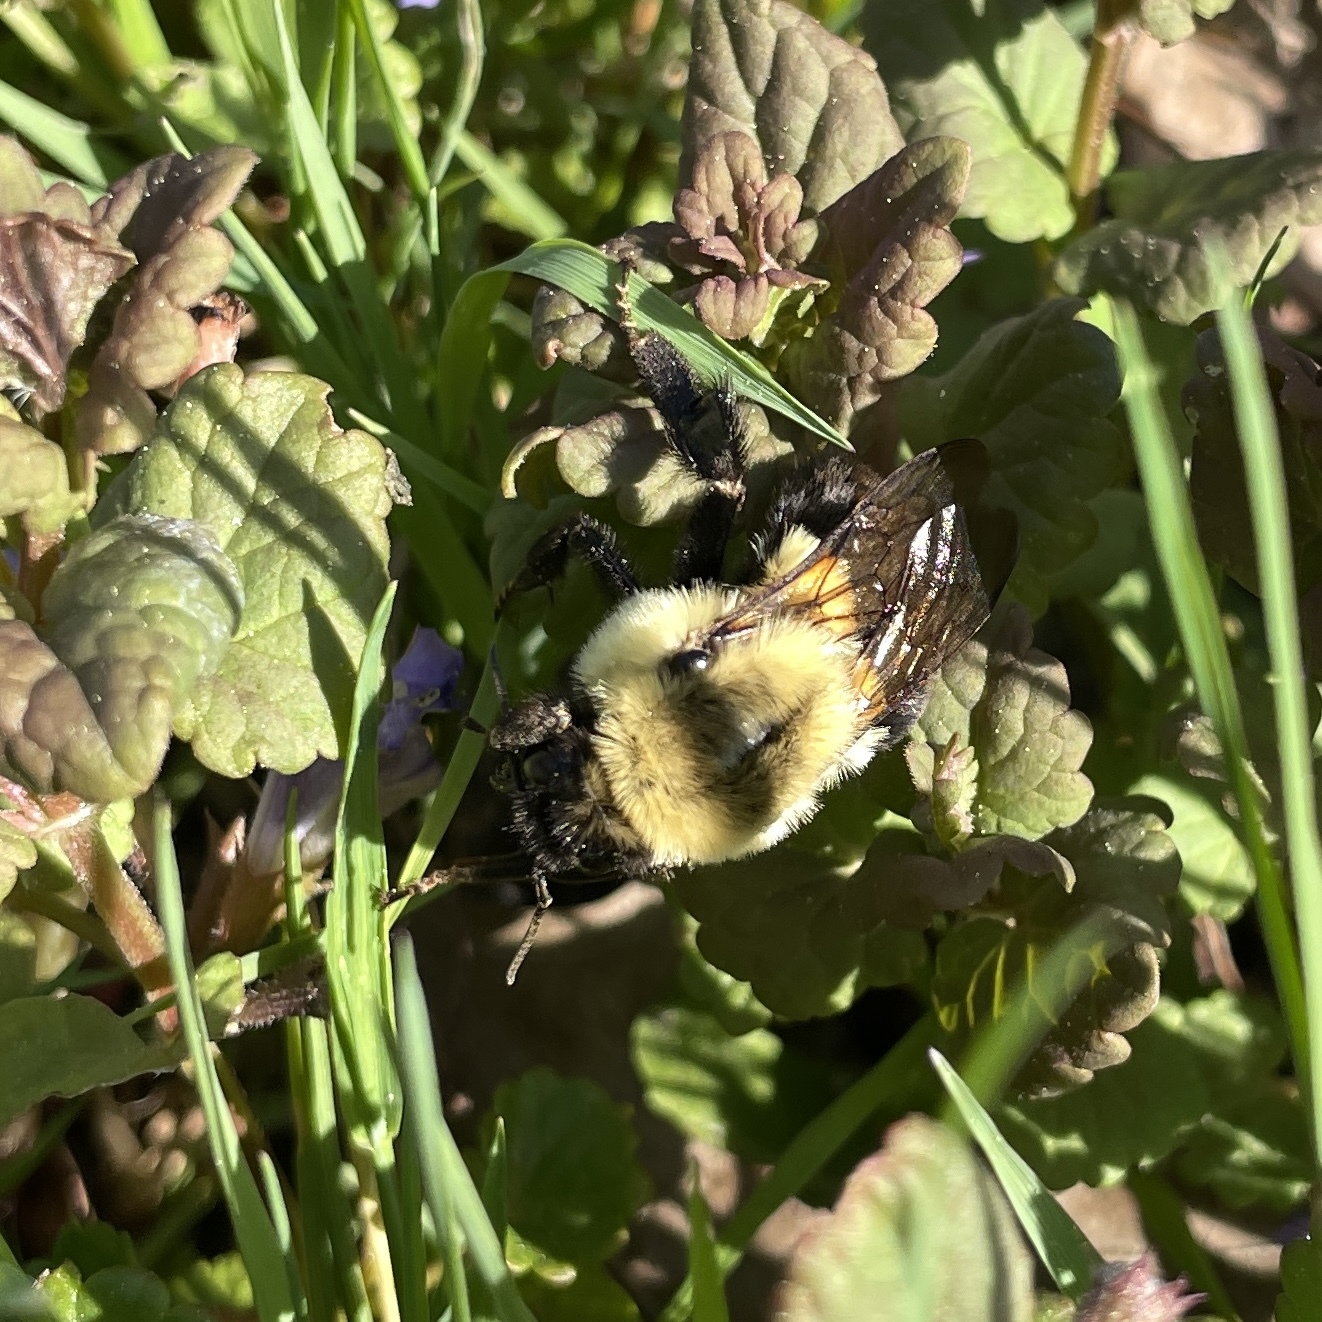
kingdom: Animalia
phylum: Arthropoda
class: Insecta
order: Hymenoptera
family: Apidae
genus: Bombus
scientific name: Bombus impatiens
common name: Common eastern bumble bee
